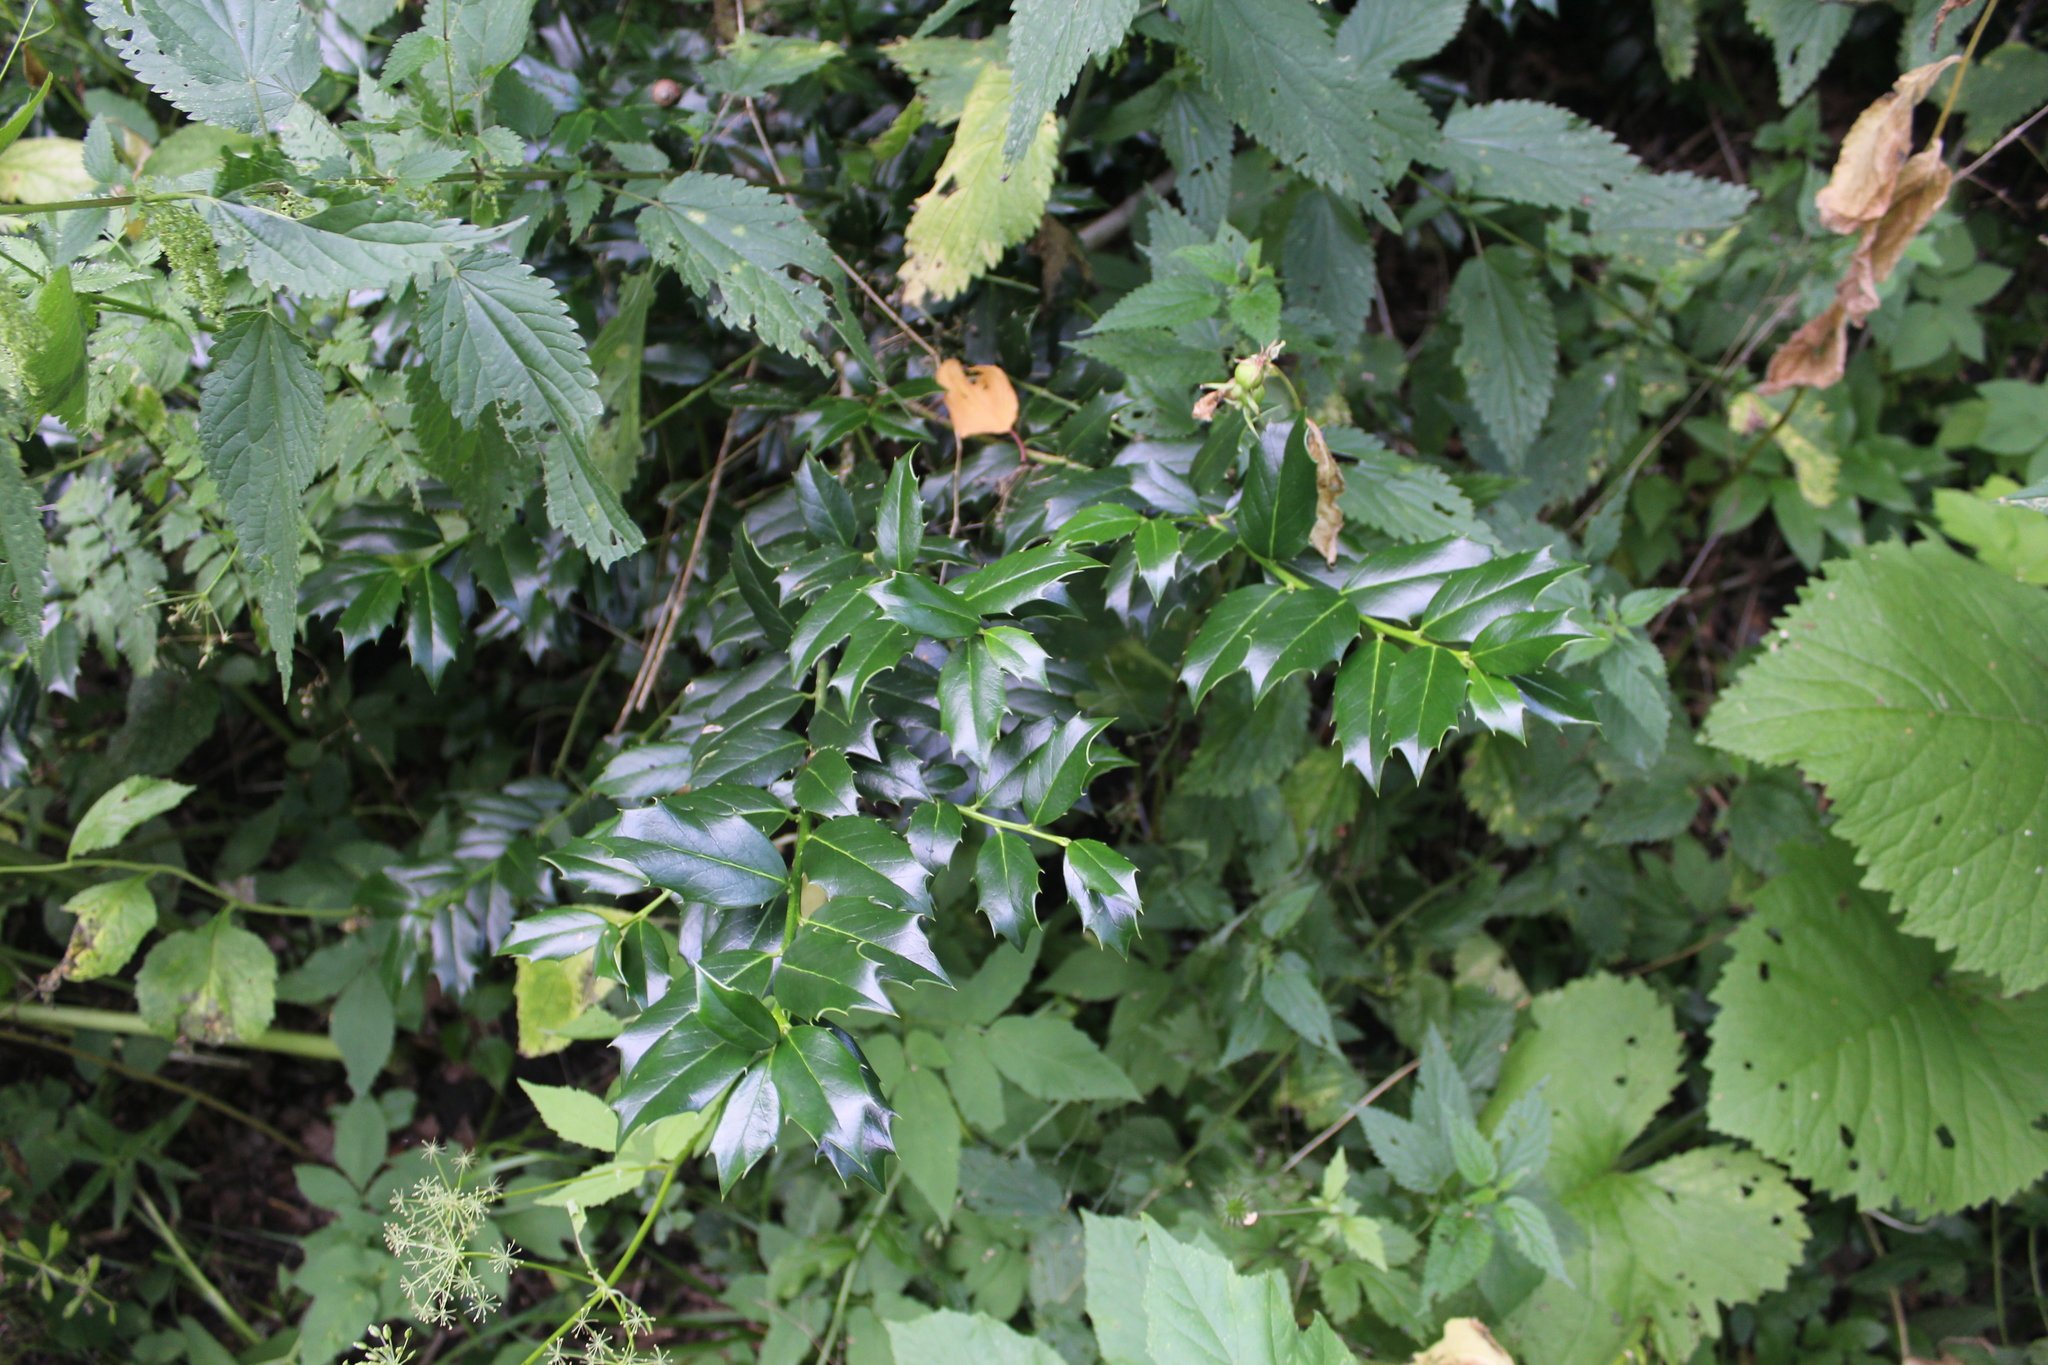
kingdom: Plantae
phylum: Tracheophyta
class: Magnoliopsida
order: Aquifoliales
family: Aquifoliaceae
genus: Ilex
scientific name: Ilex colchica
